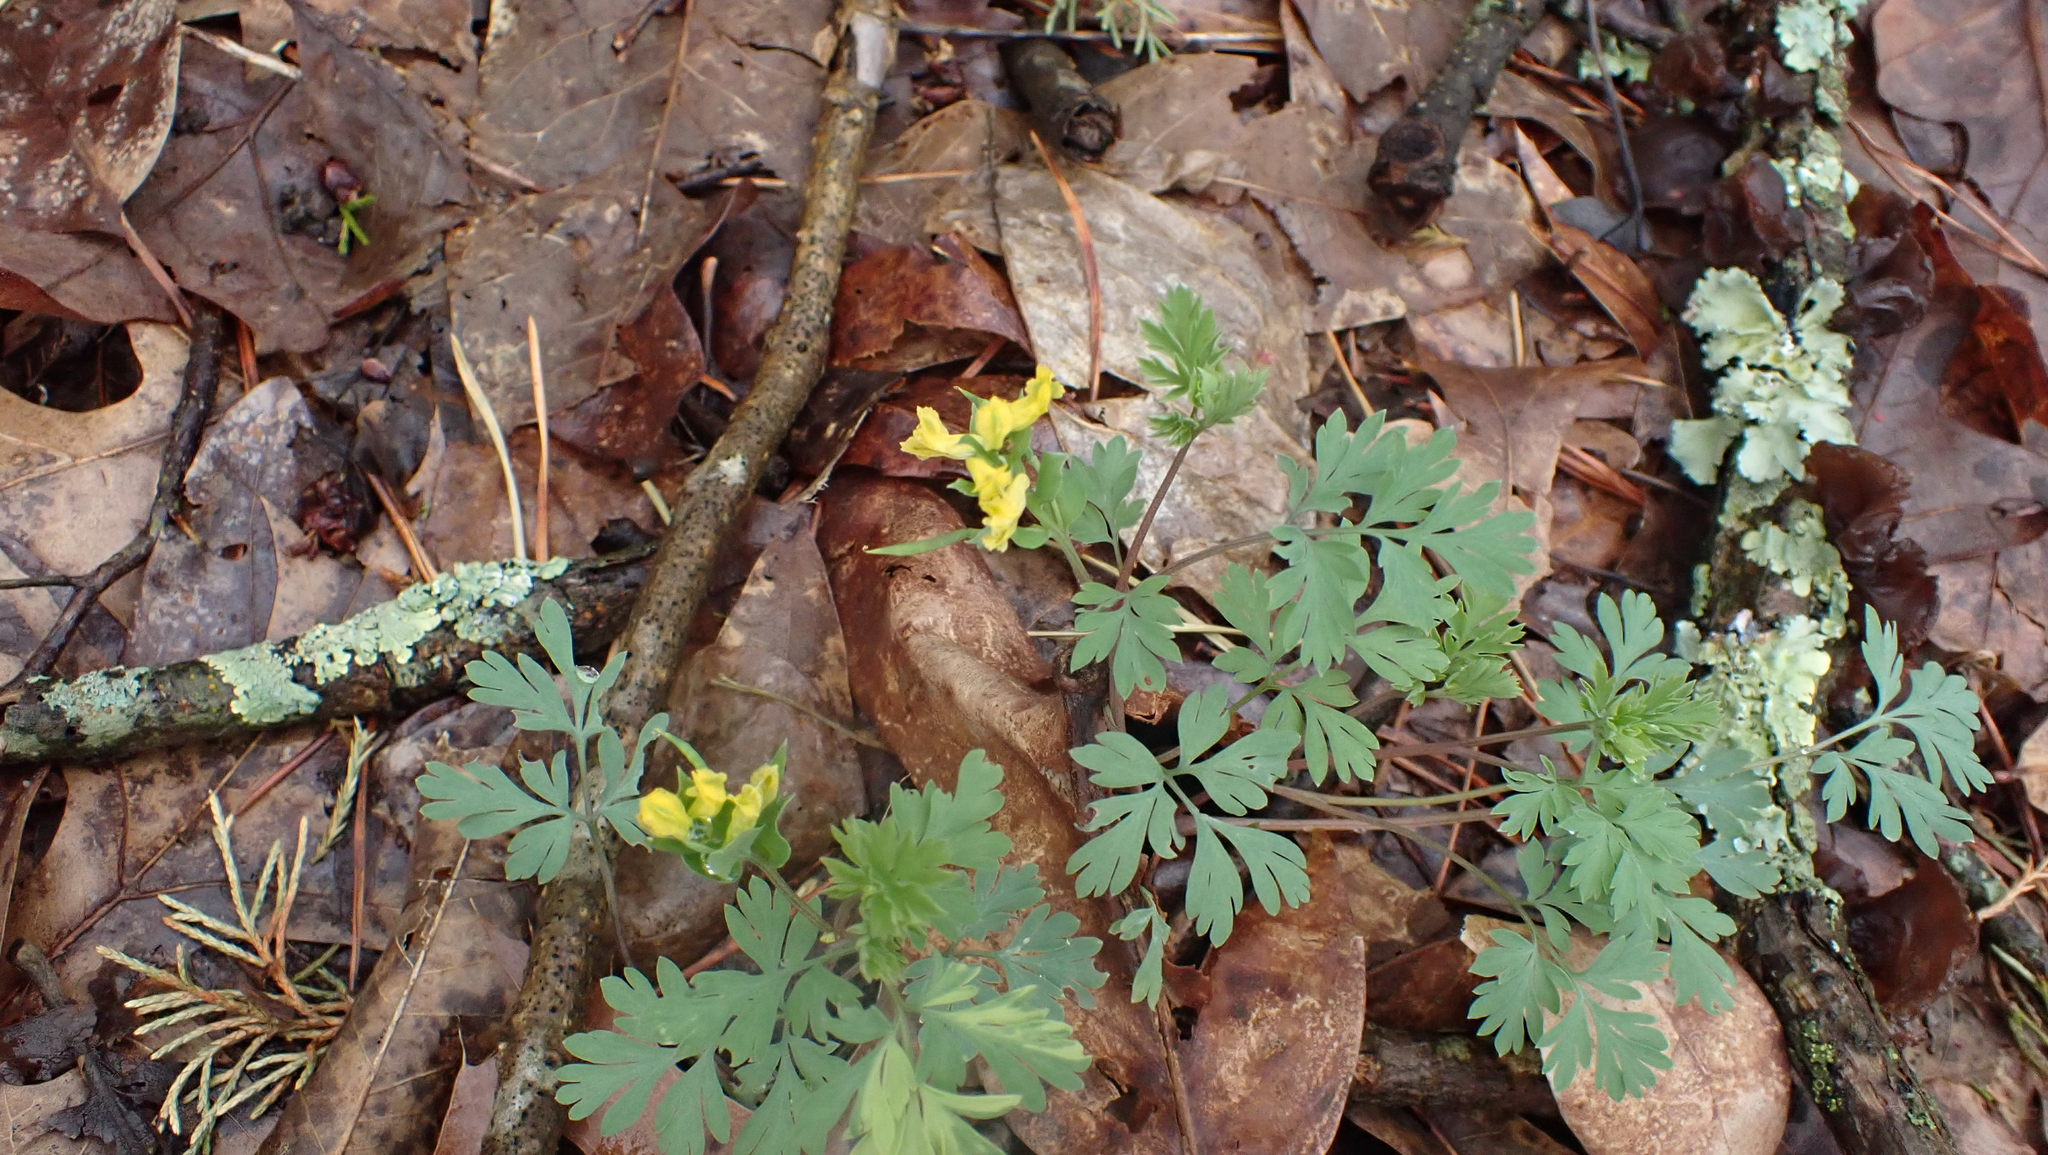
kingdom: Plantae
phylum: Tracheophyta
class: Magnoliopsida
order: Ranunculales
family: Papaveraceae
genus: Corydalis
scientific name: Corydalis flavula
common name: Yellow corydalis
